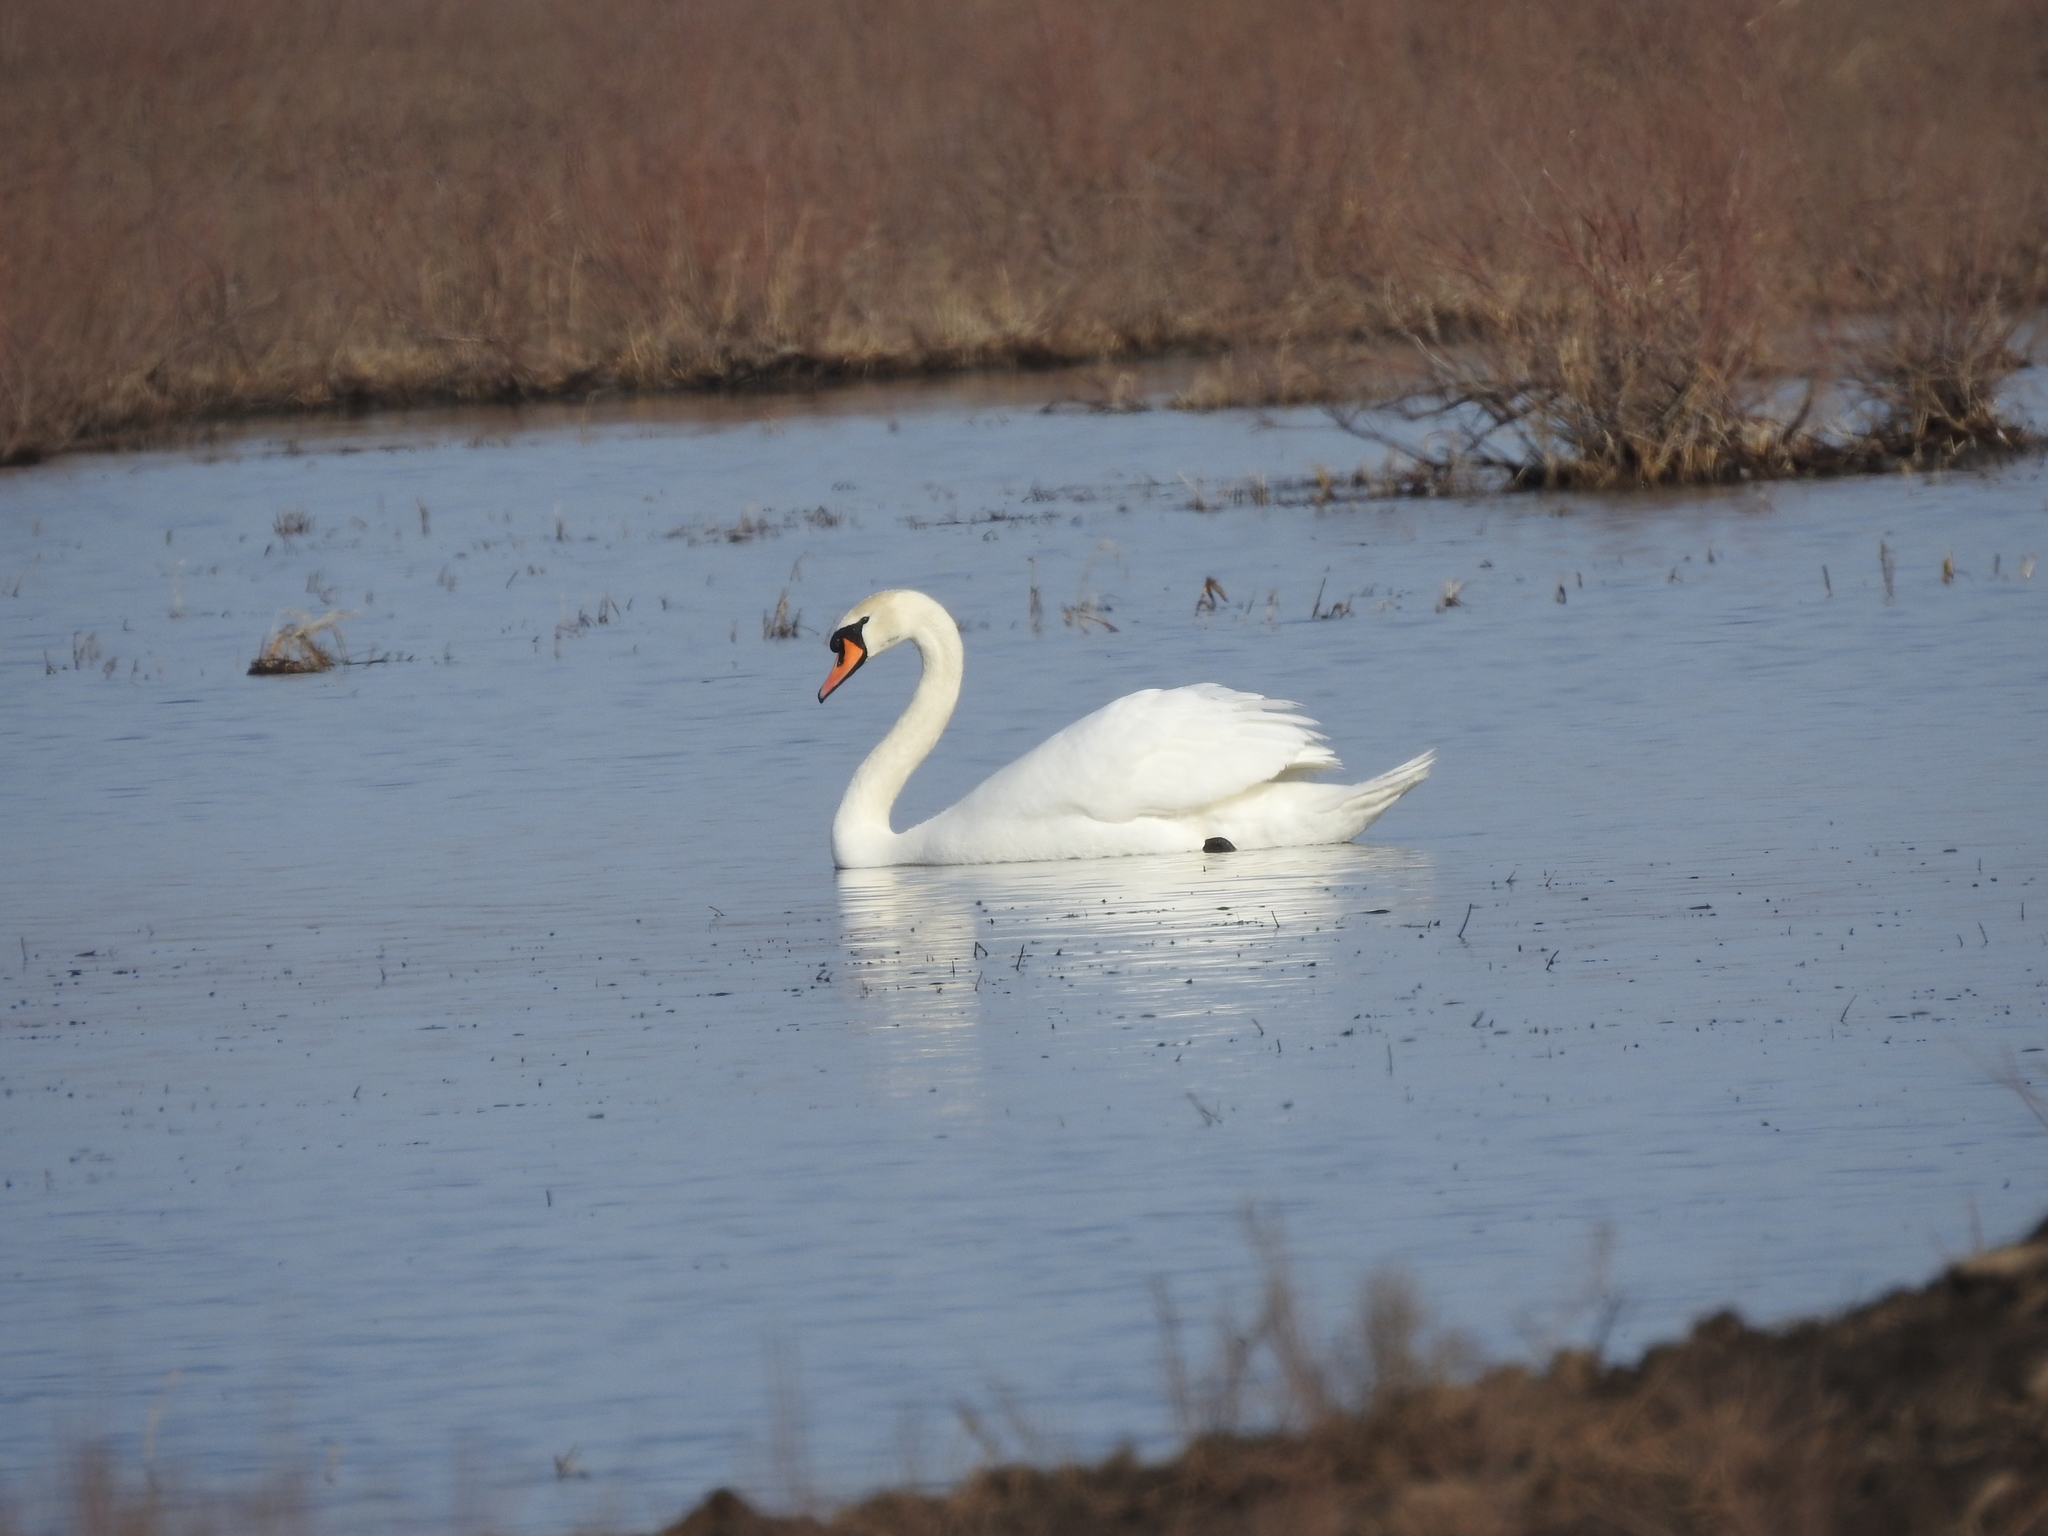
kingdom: Animalia
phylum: Chordata
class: Aves
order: Anseriformes
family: Anatidae
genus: Cygnus
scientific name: Cygnus olor
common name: Mute swan
